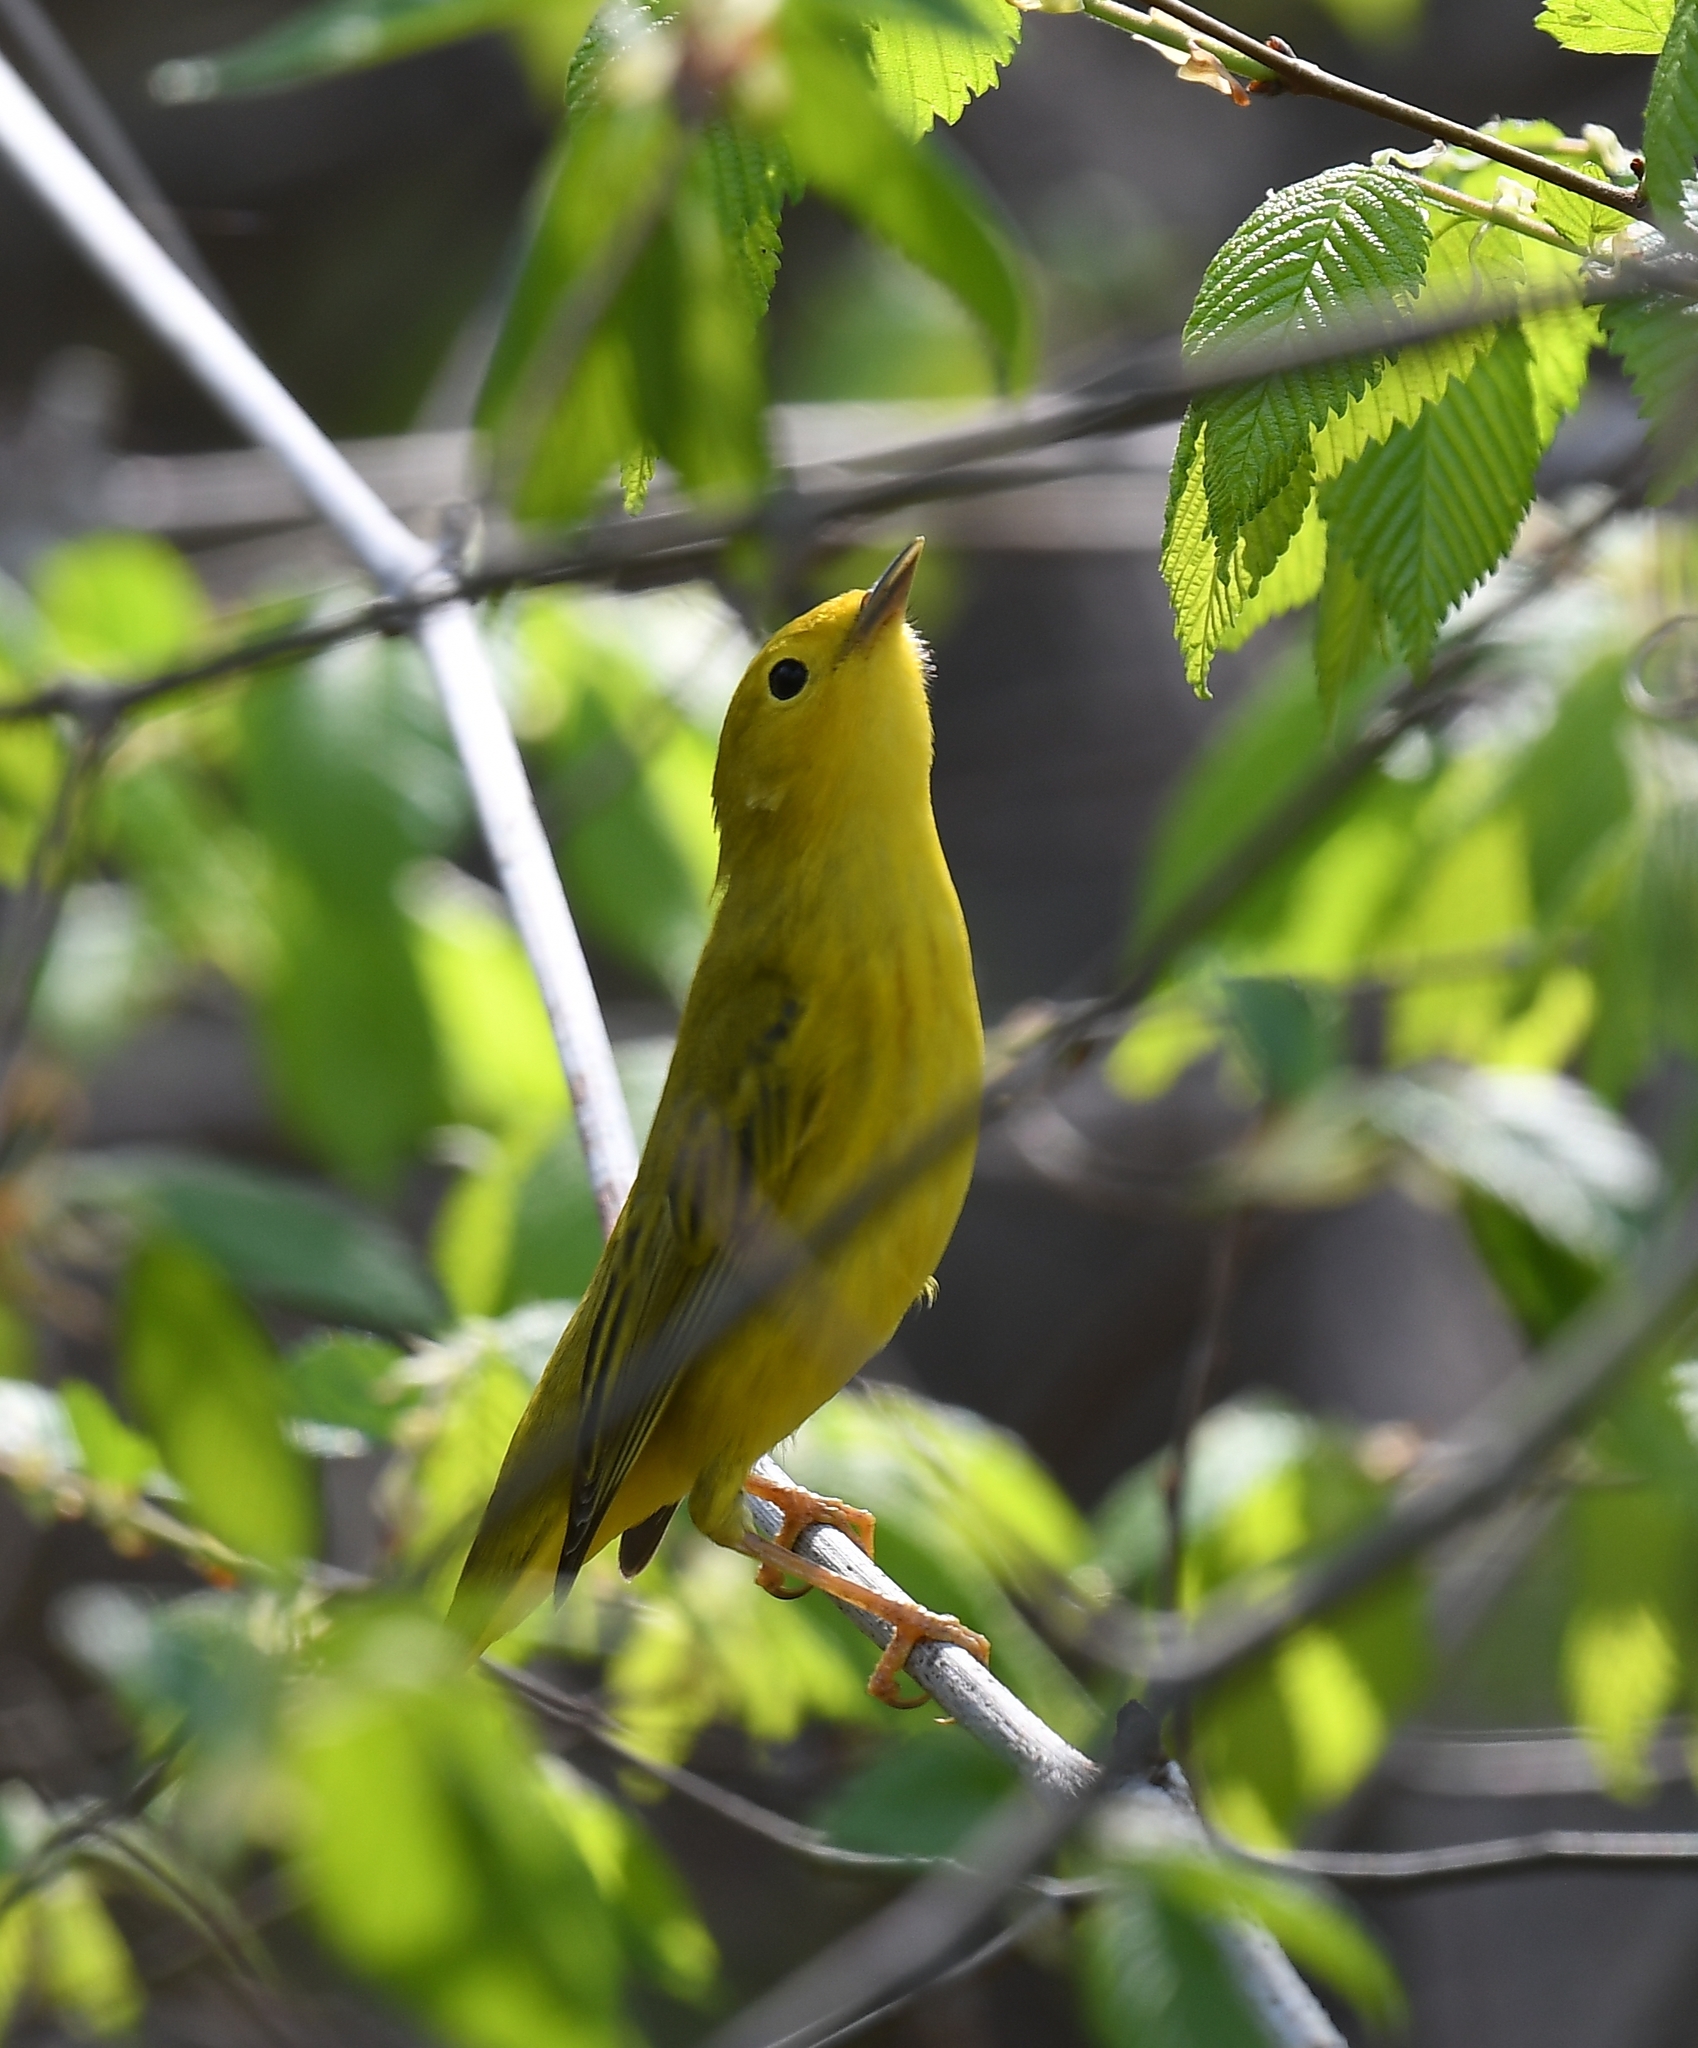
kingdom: Animalia
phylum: Chordata
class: Aves
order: Passeriformes
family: Parulidae
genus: Setophaga
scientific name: Setophaga petechia
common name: Yellow warbler
